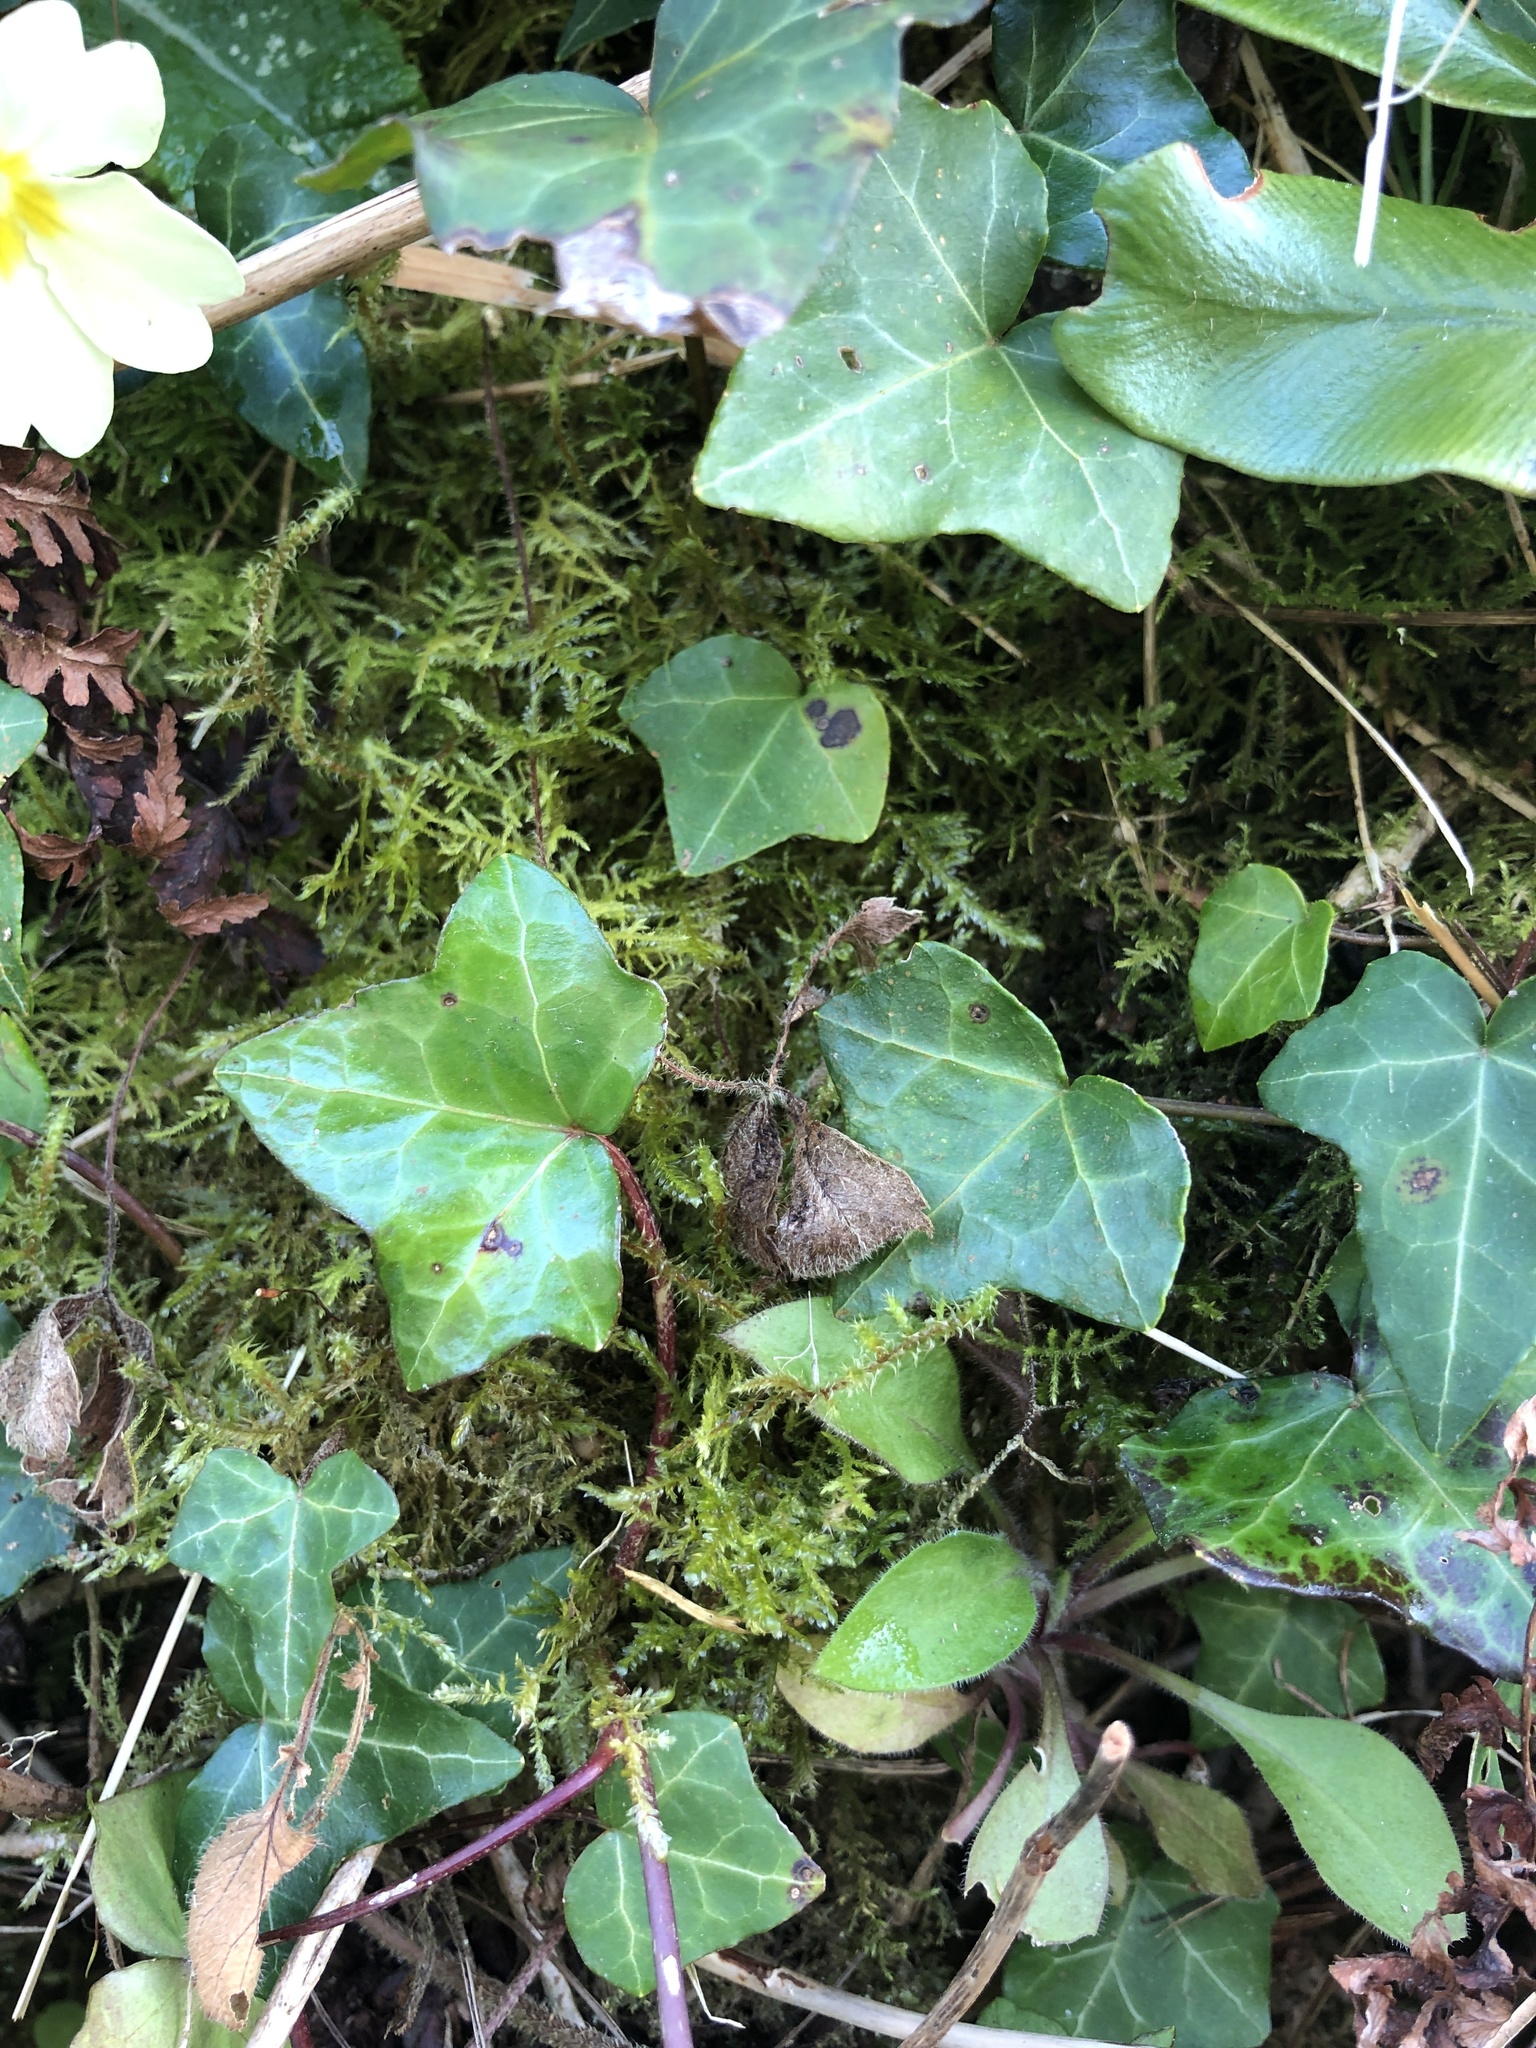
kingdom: Plantae
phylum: Bryophyta
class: Bryopsida
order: Hypnales
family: Neckeraceae
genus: Alleniella
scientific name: Alleniella complanata
